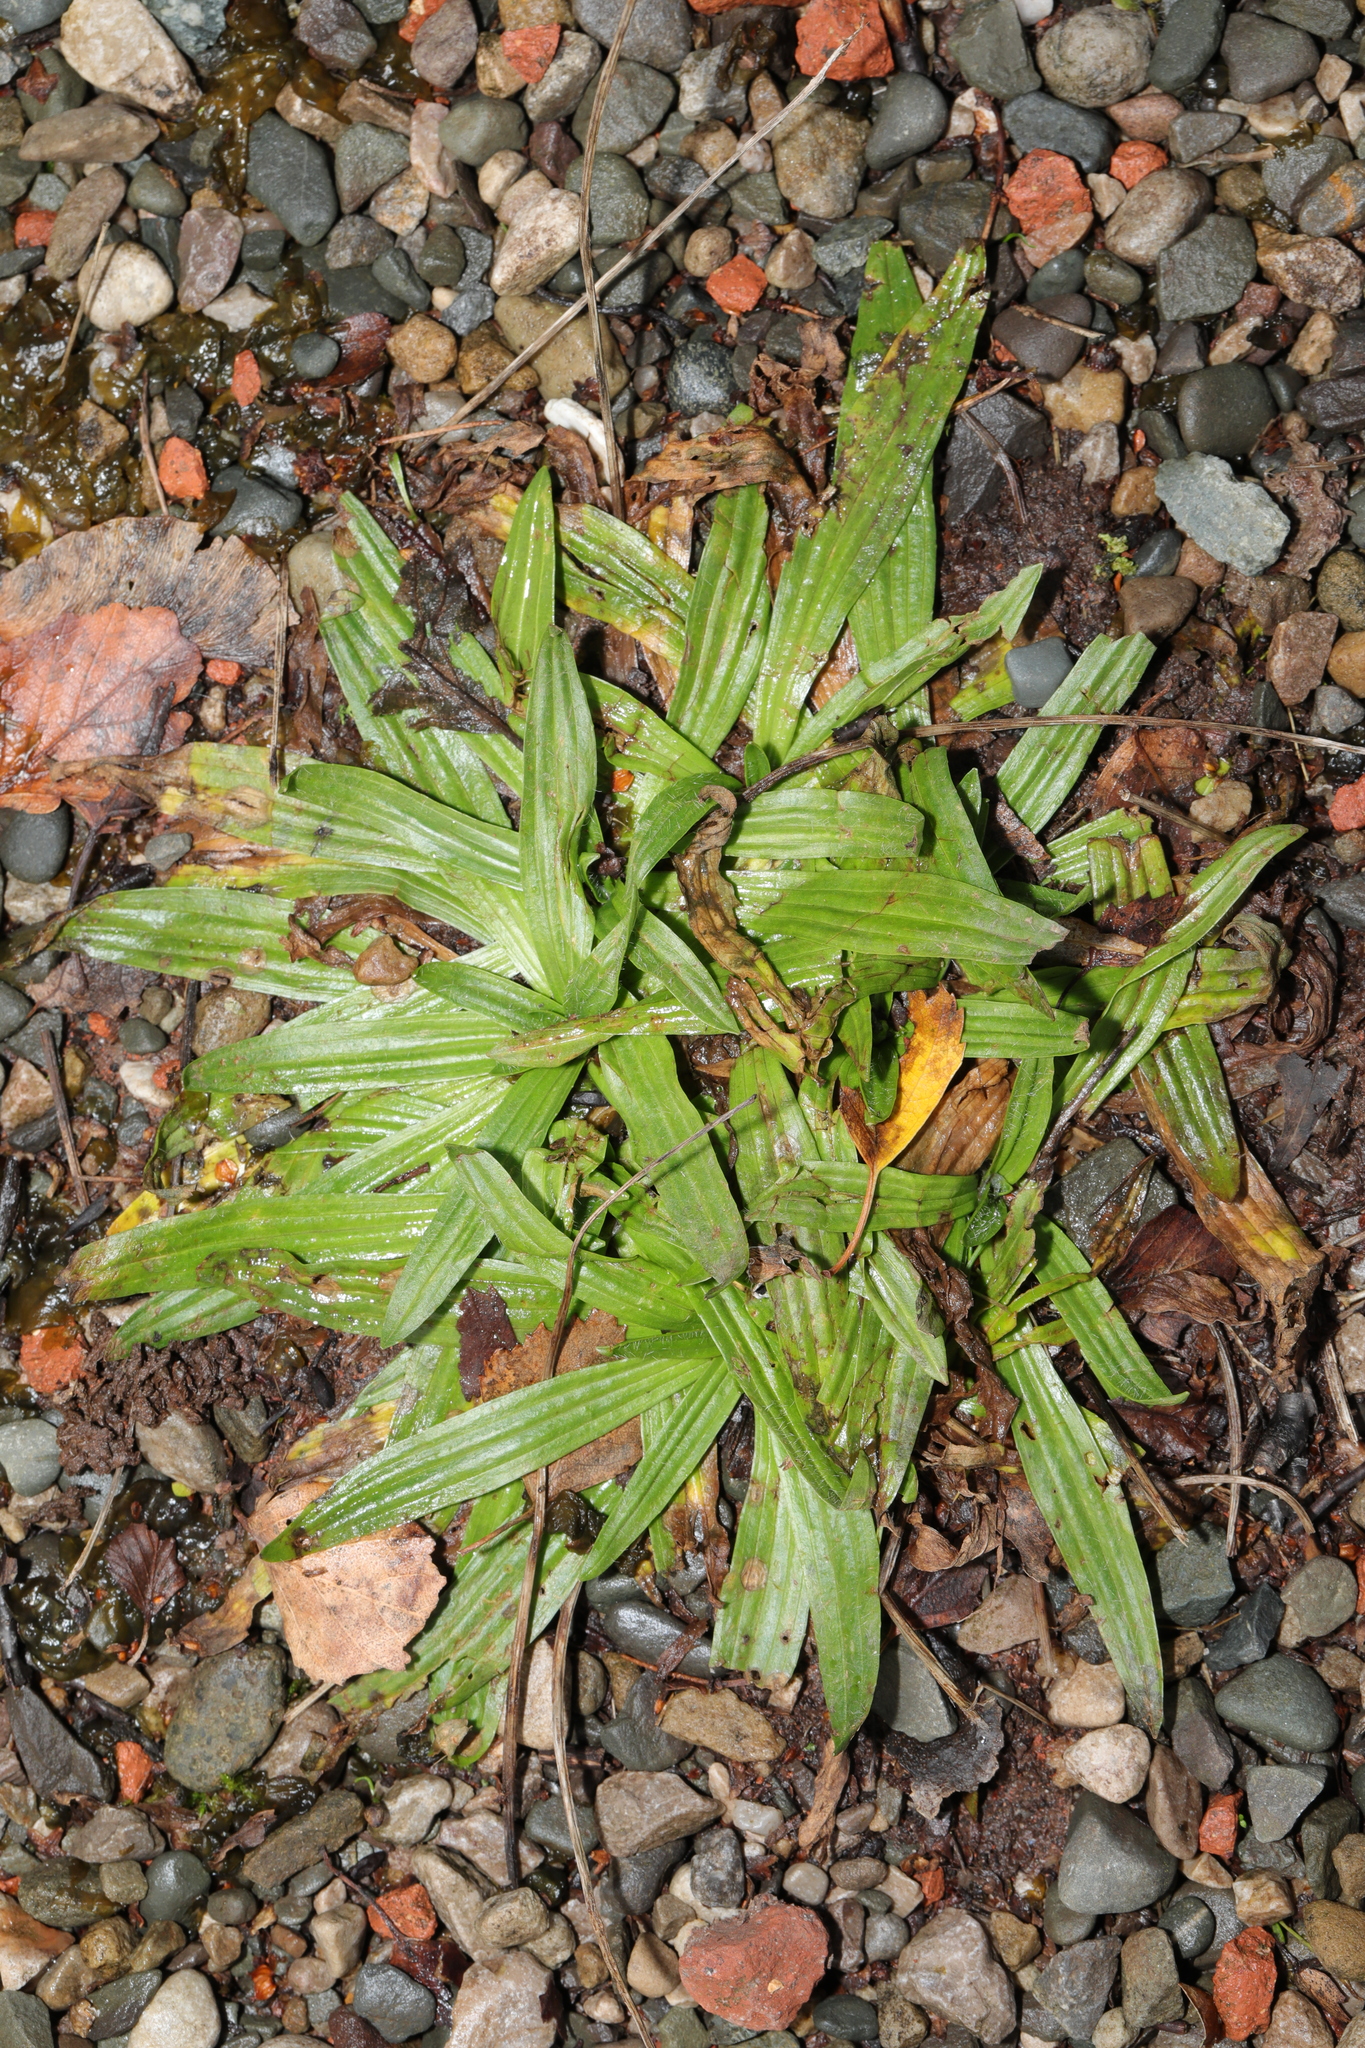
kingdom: Plantae
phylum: Tracheophyta
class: Magnoliopsida
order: Lamiales
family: Plantaginaceae
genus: Plantago
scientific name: Plantago lanceolata
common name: Ribwort plantain
